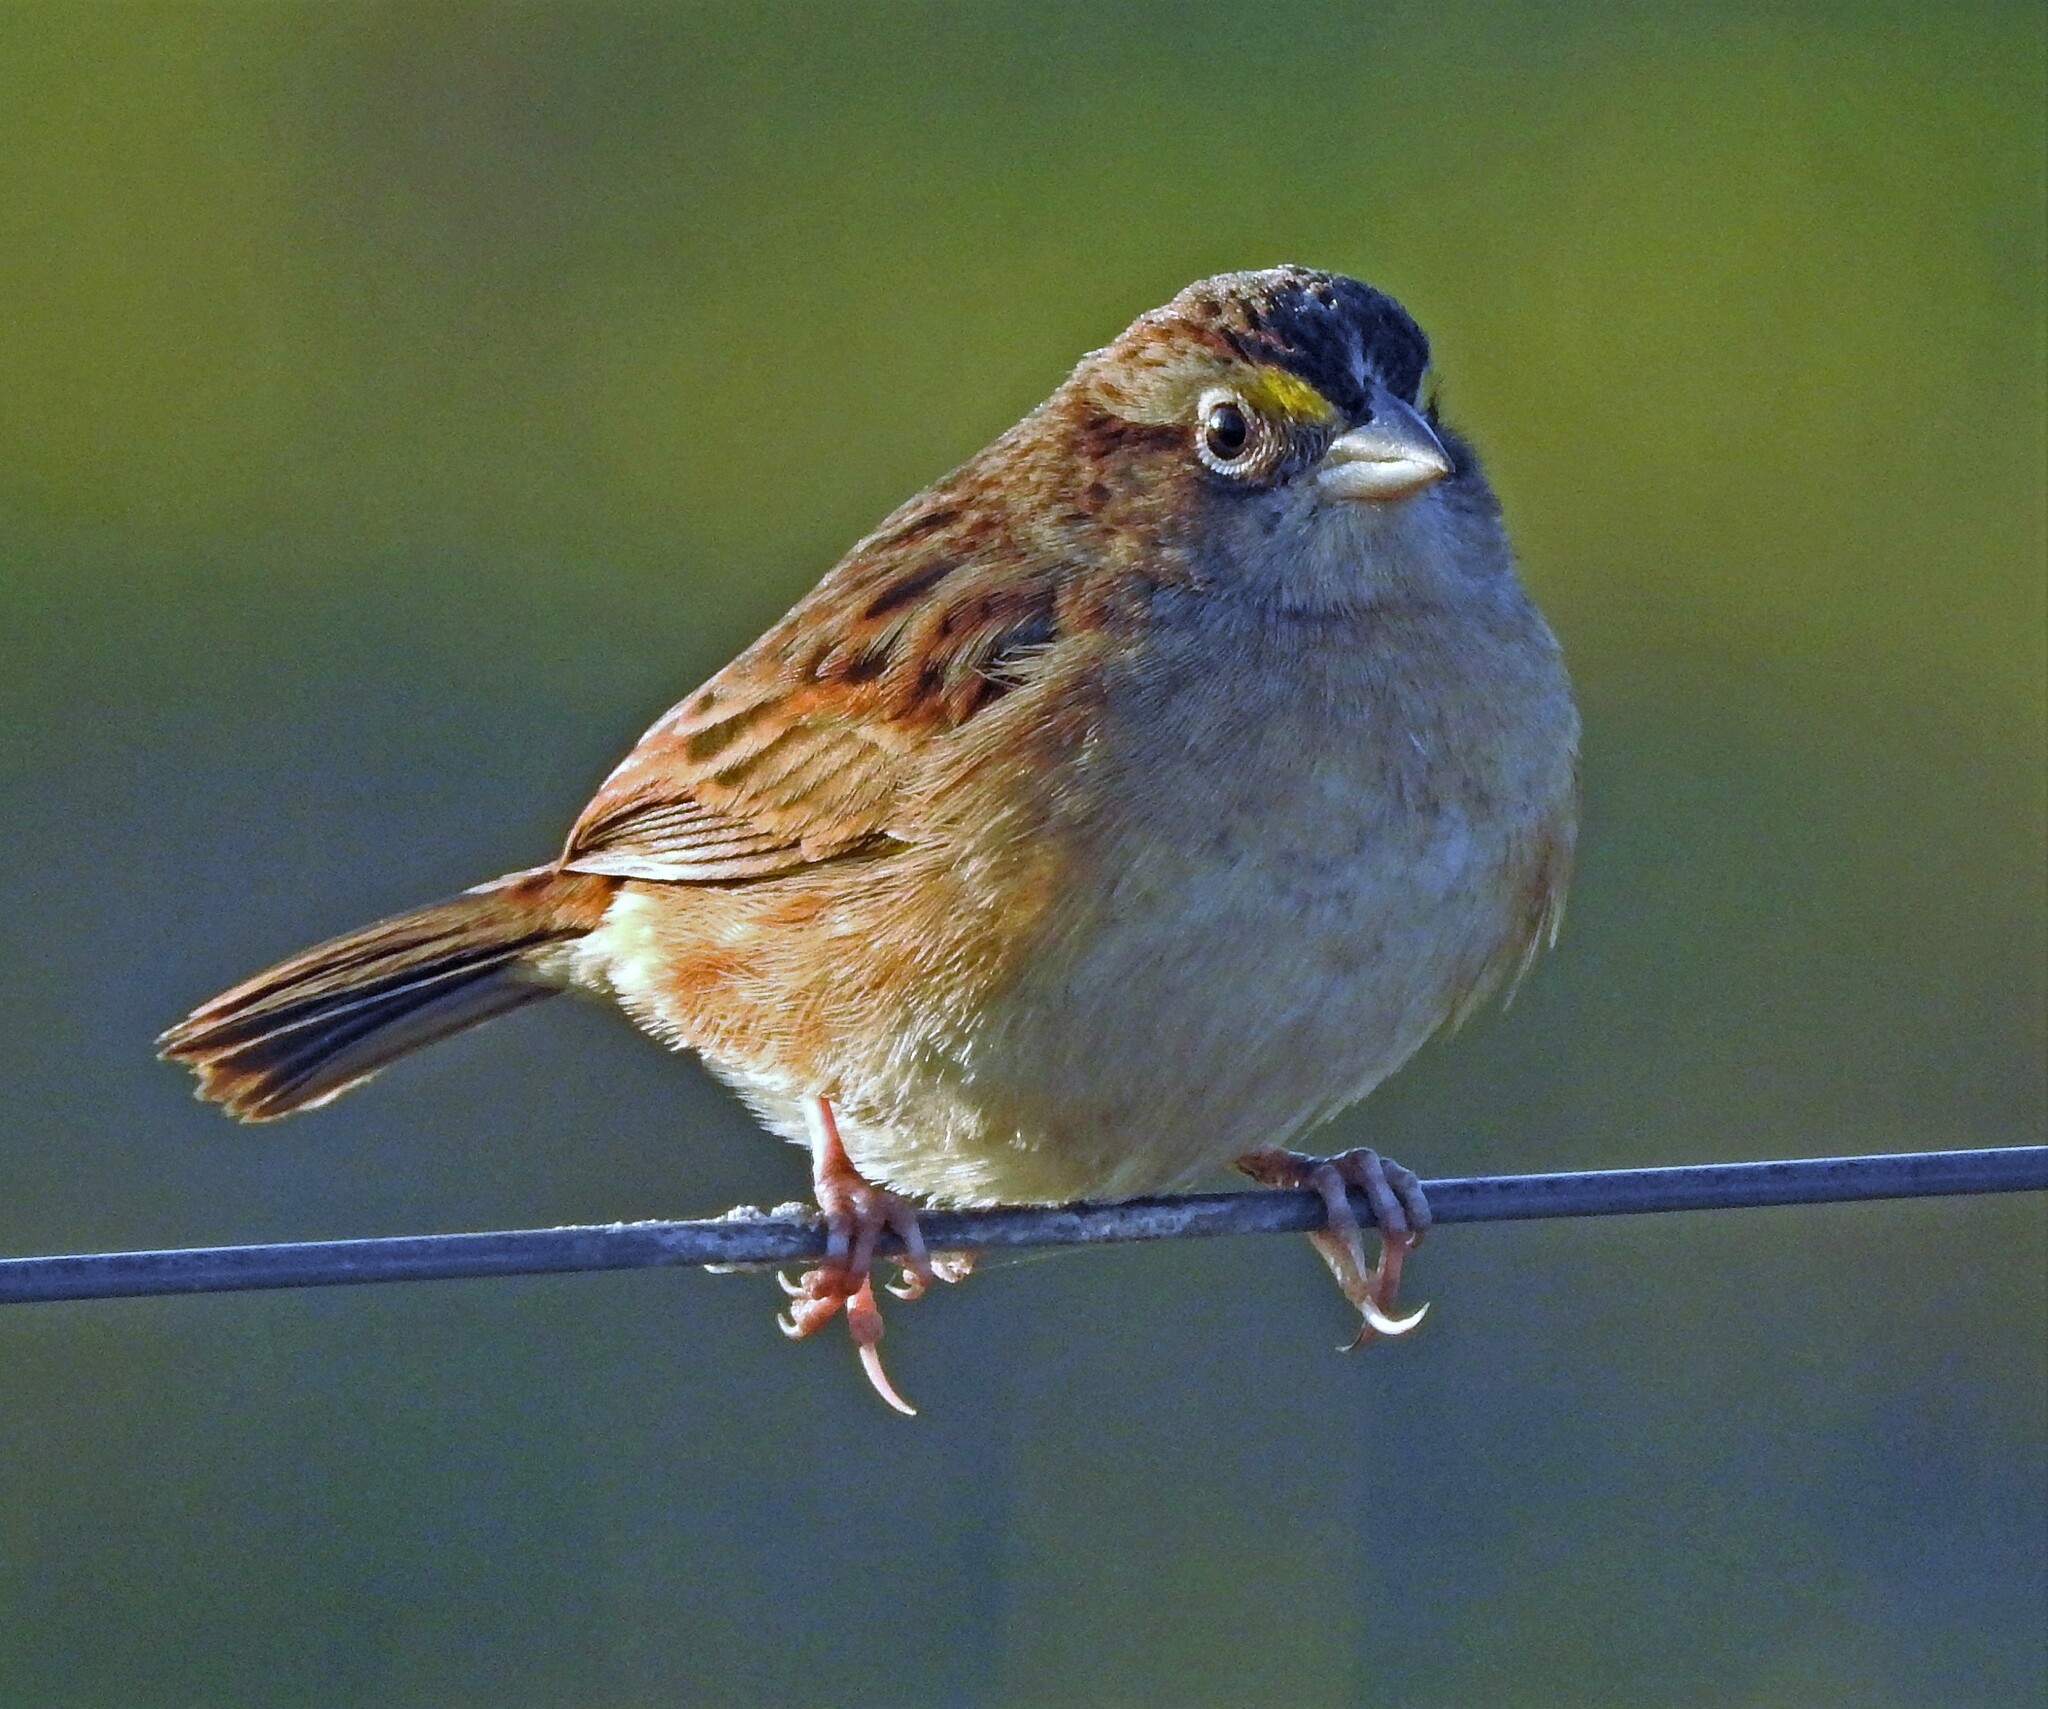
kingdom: Animalia
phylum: Chordata
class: Aves
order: Passeriformes
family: Passerellidae
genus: Ammodramus
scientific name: Ammodramus humeralis
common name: Grassland sparrow
